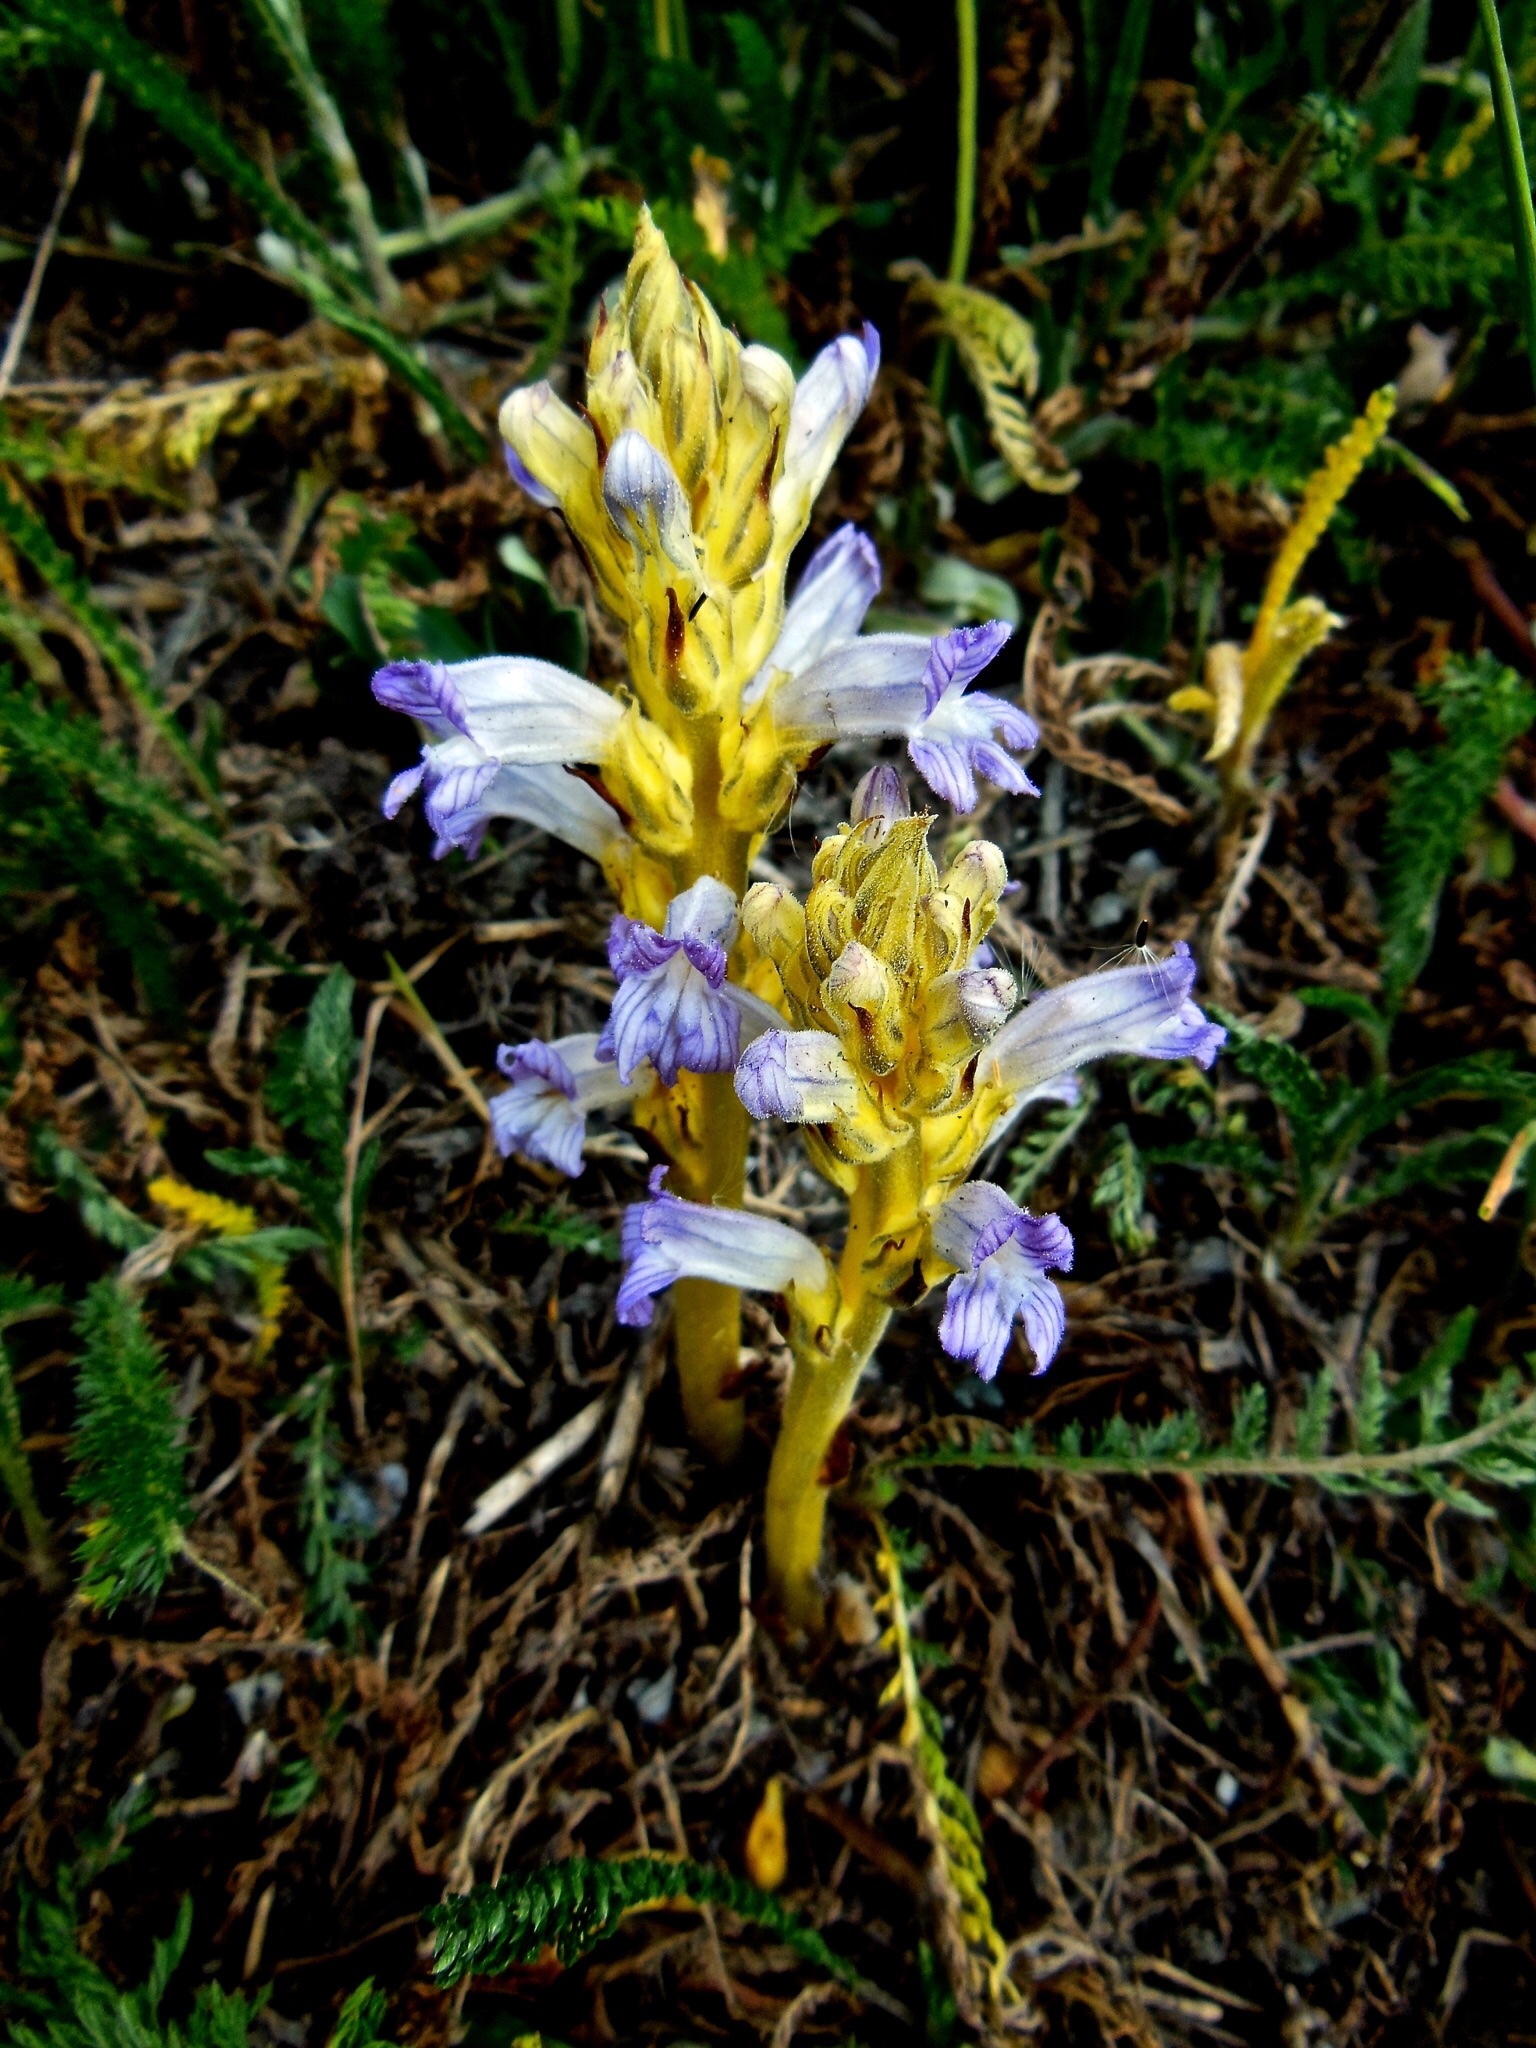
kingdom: Plantae
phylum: Tracheophyta
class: Magnoliopsida
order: Lamiales
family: Orobanchaceae
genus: Phelipanche
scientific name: Phelipanche purpurea
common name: Purple broomrape
